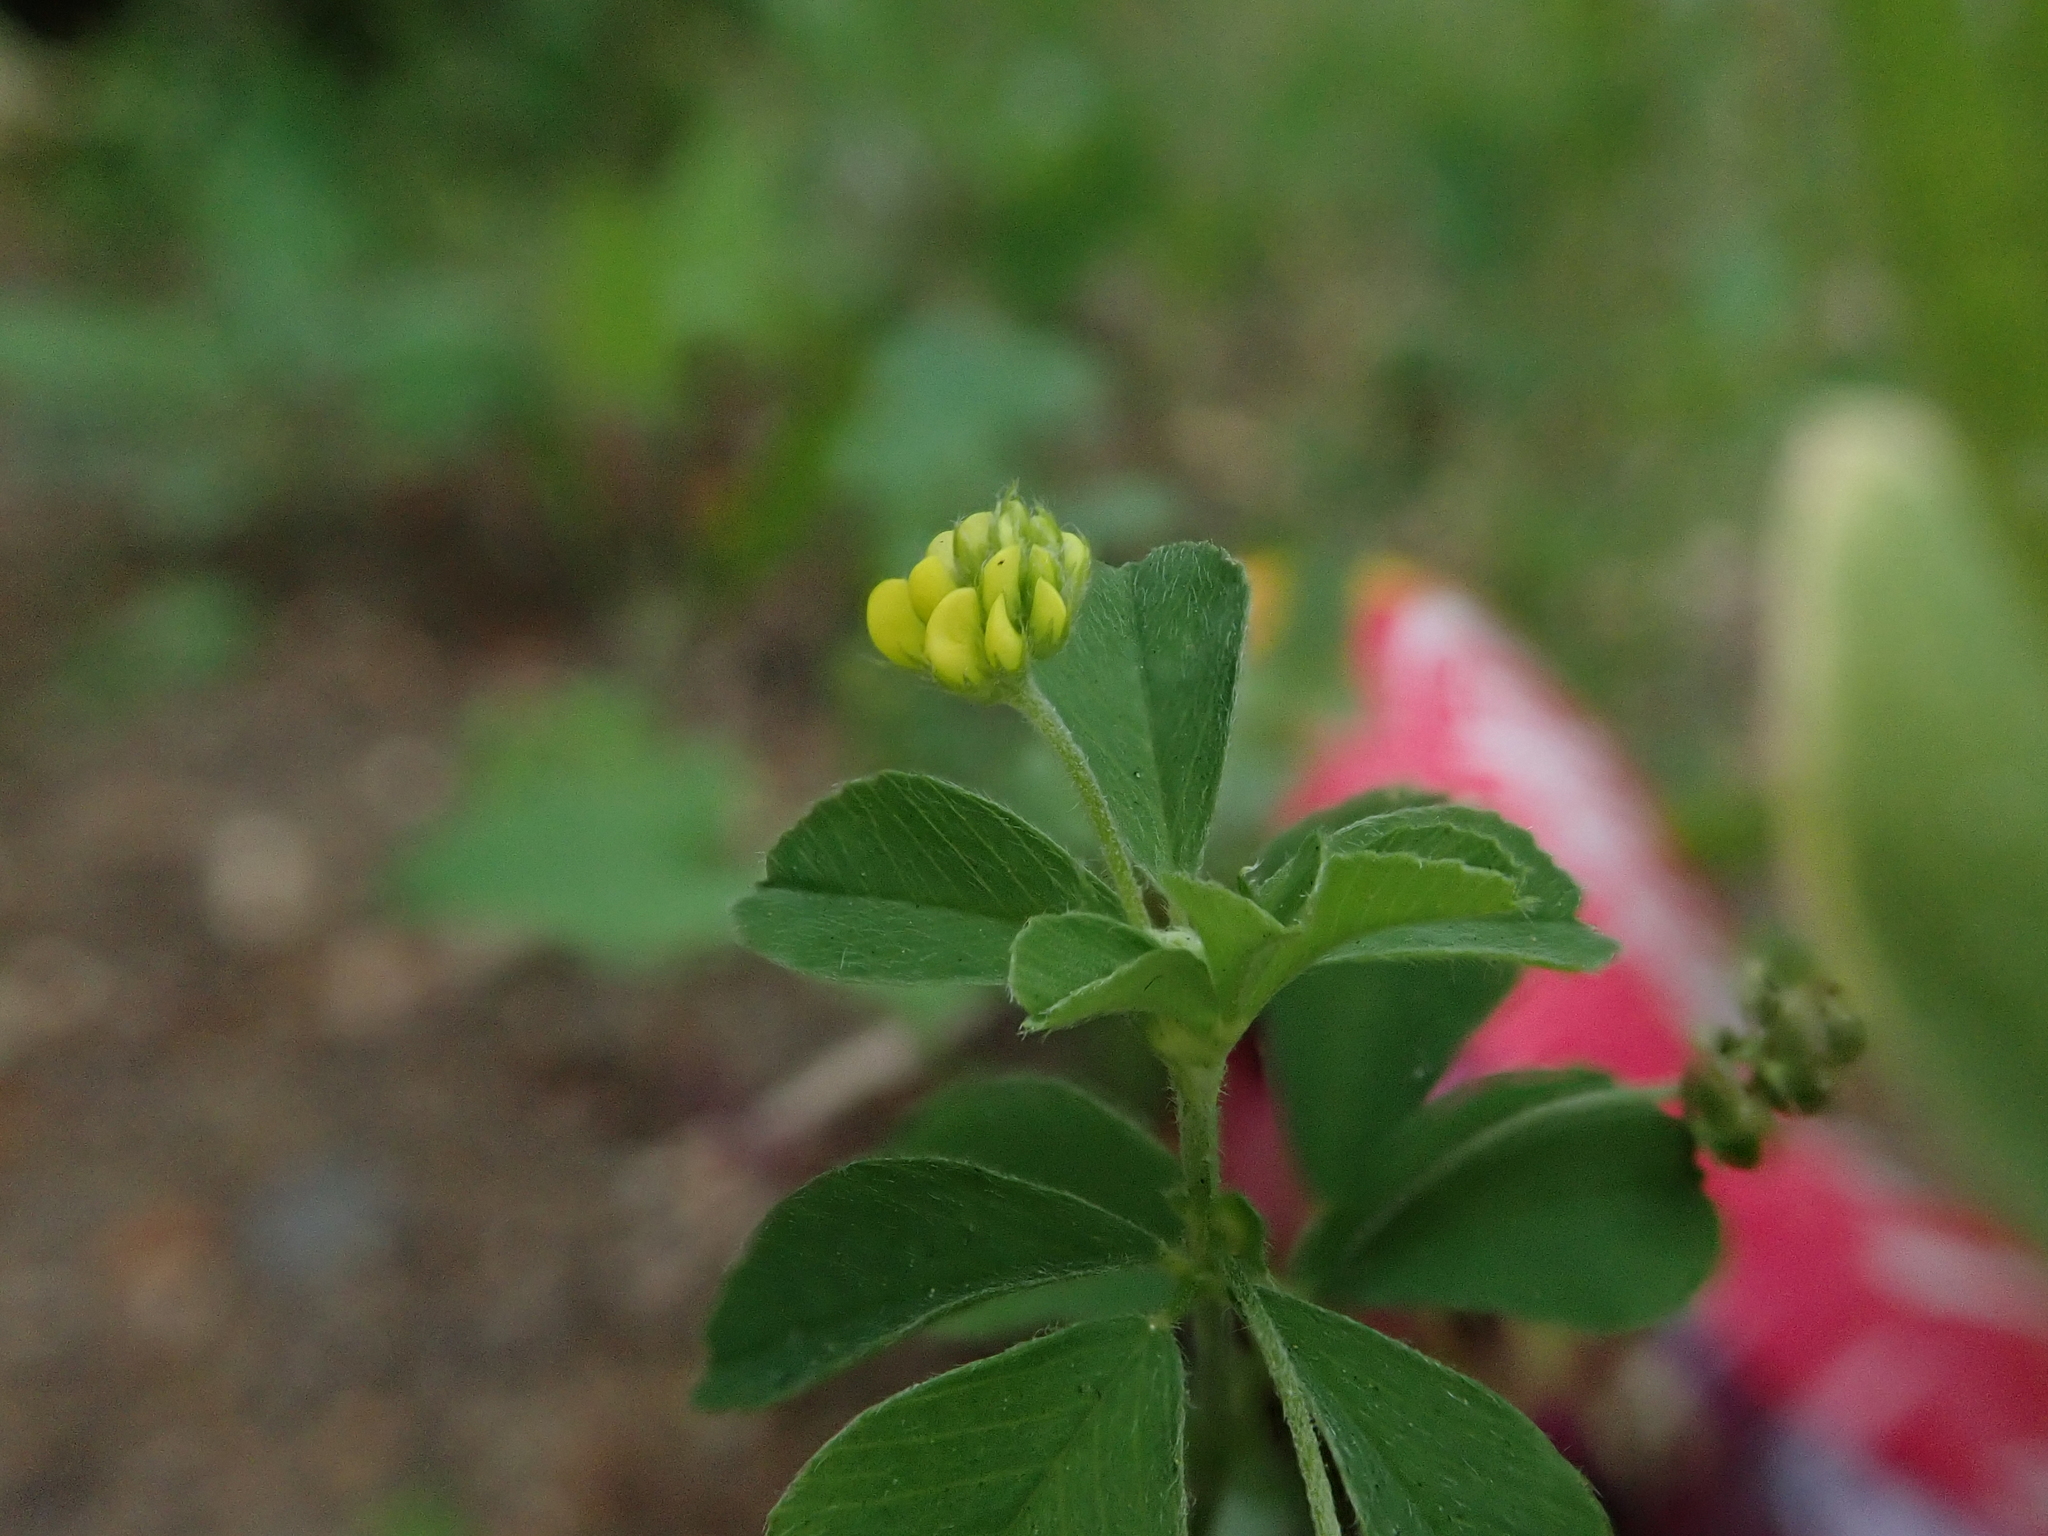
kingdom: Plantae
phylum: Tracheophyta
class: Magnoliopsida
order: Fabales
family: Fabaceae
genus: Medicago
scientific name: Medicago lupulina
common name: Black medick
